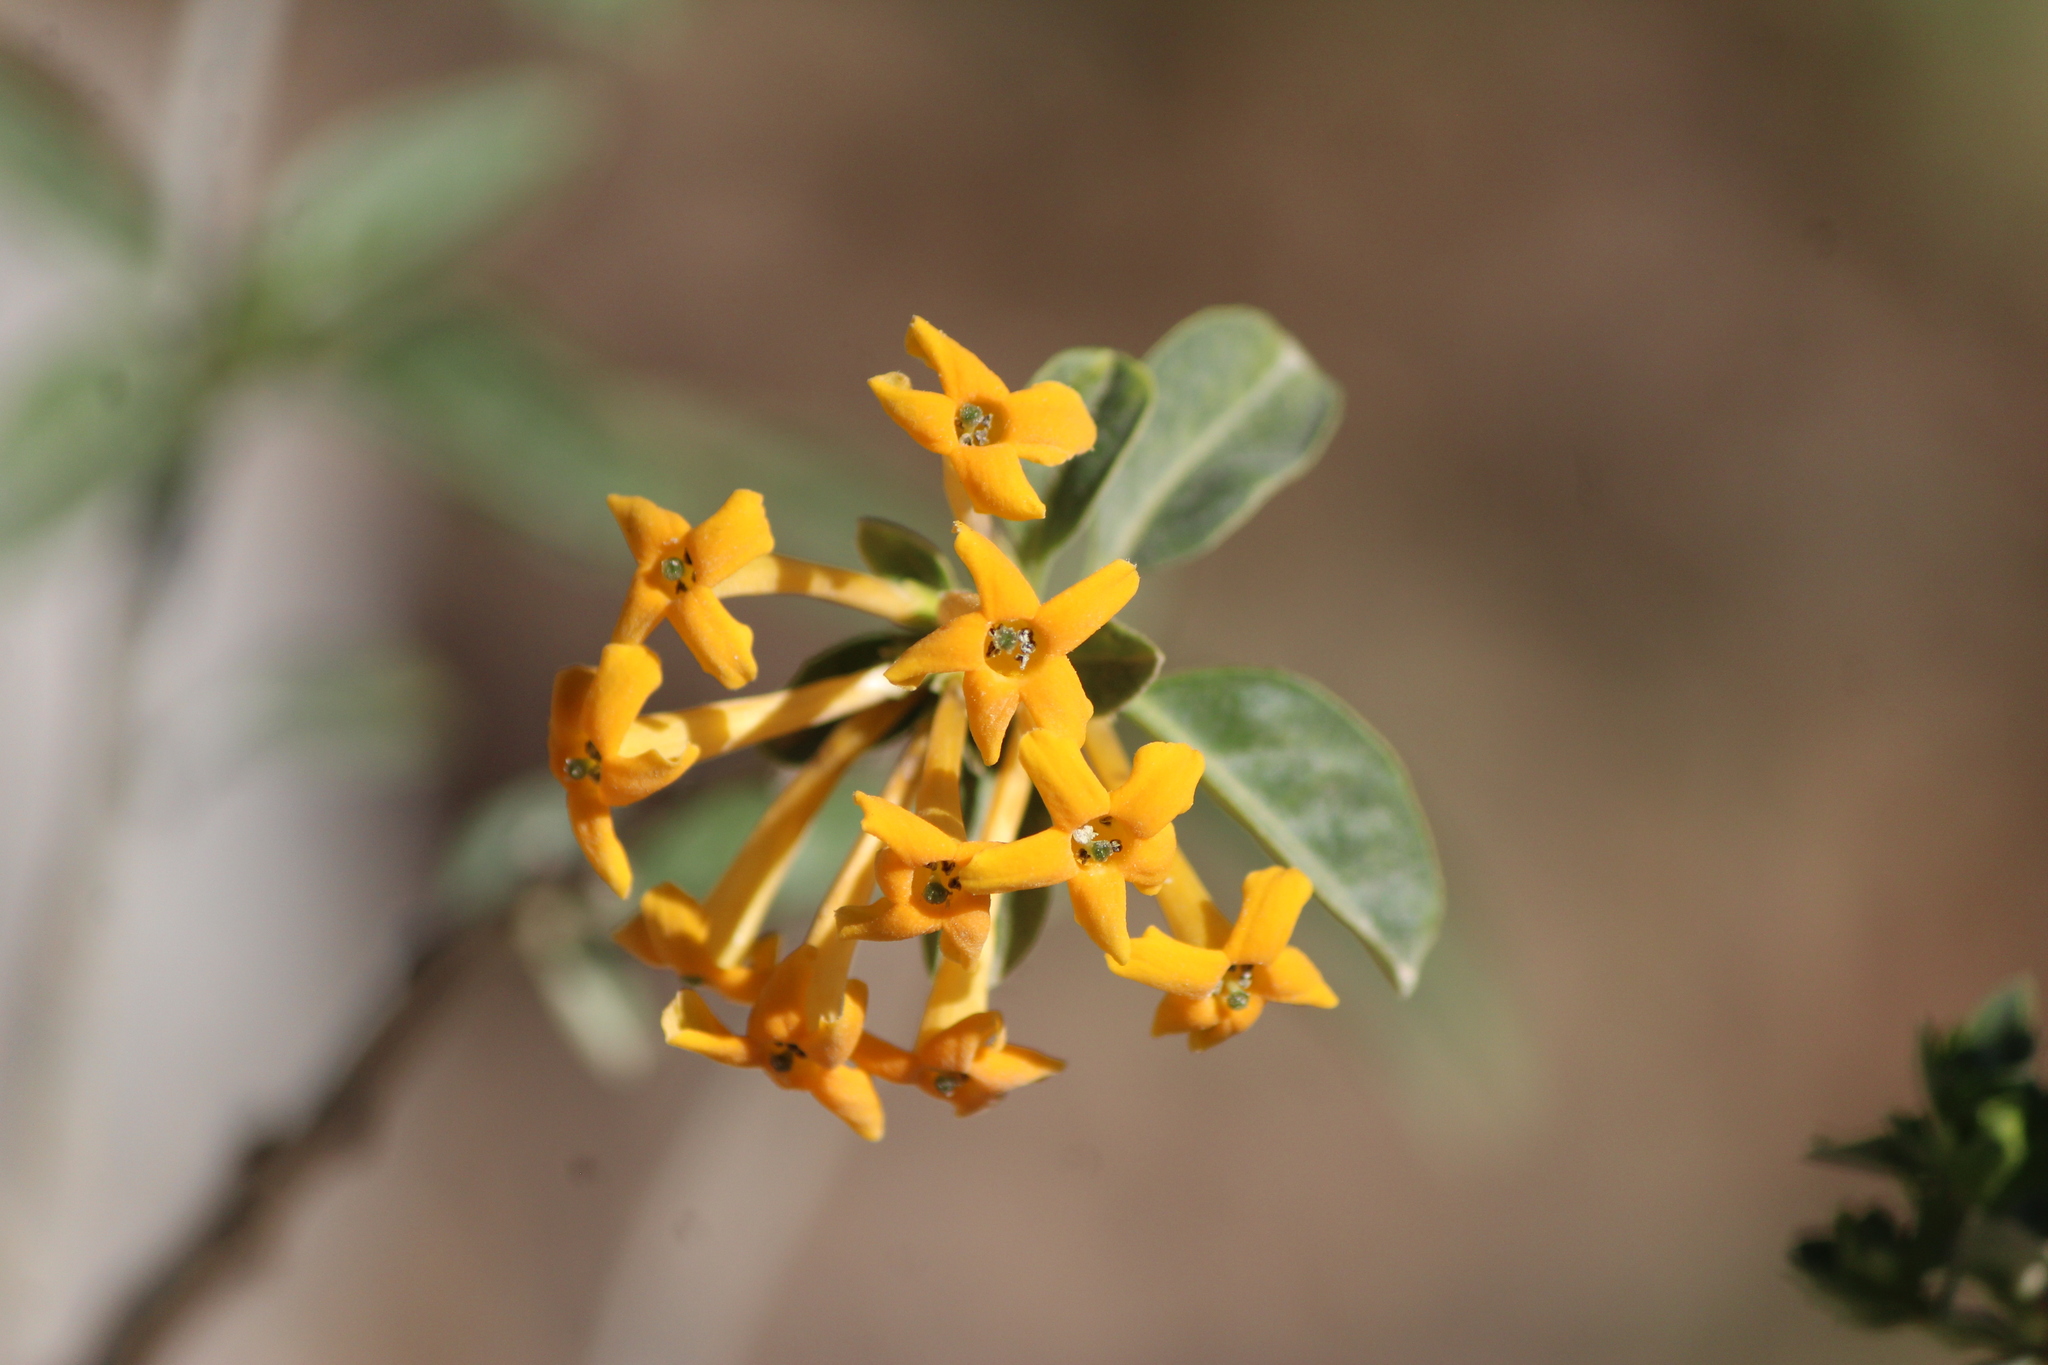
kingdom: Plantae
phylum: Tracheophyta
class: Magnoliopsida
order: Solanales
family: Solanaceae
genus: Cestrum
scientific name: Cestrum aurantiacum
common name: Orange cestrum
